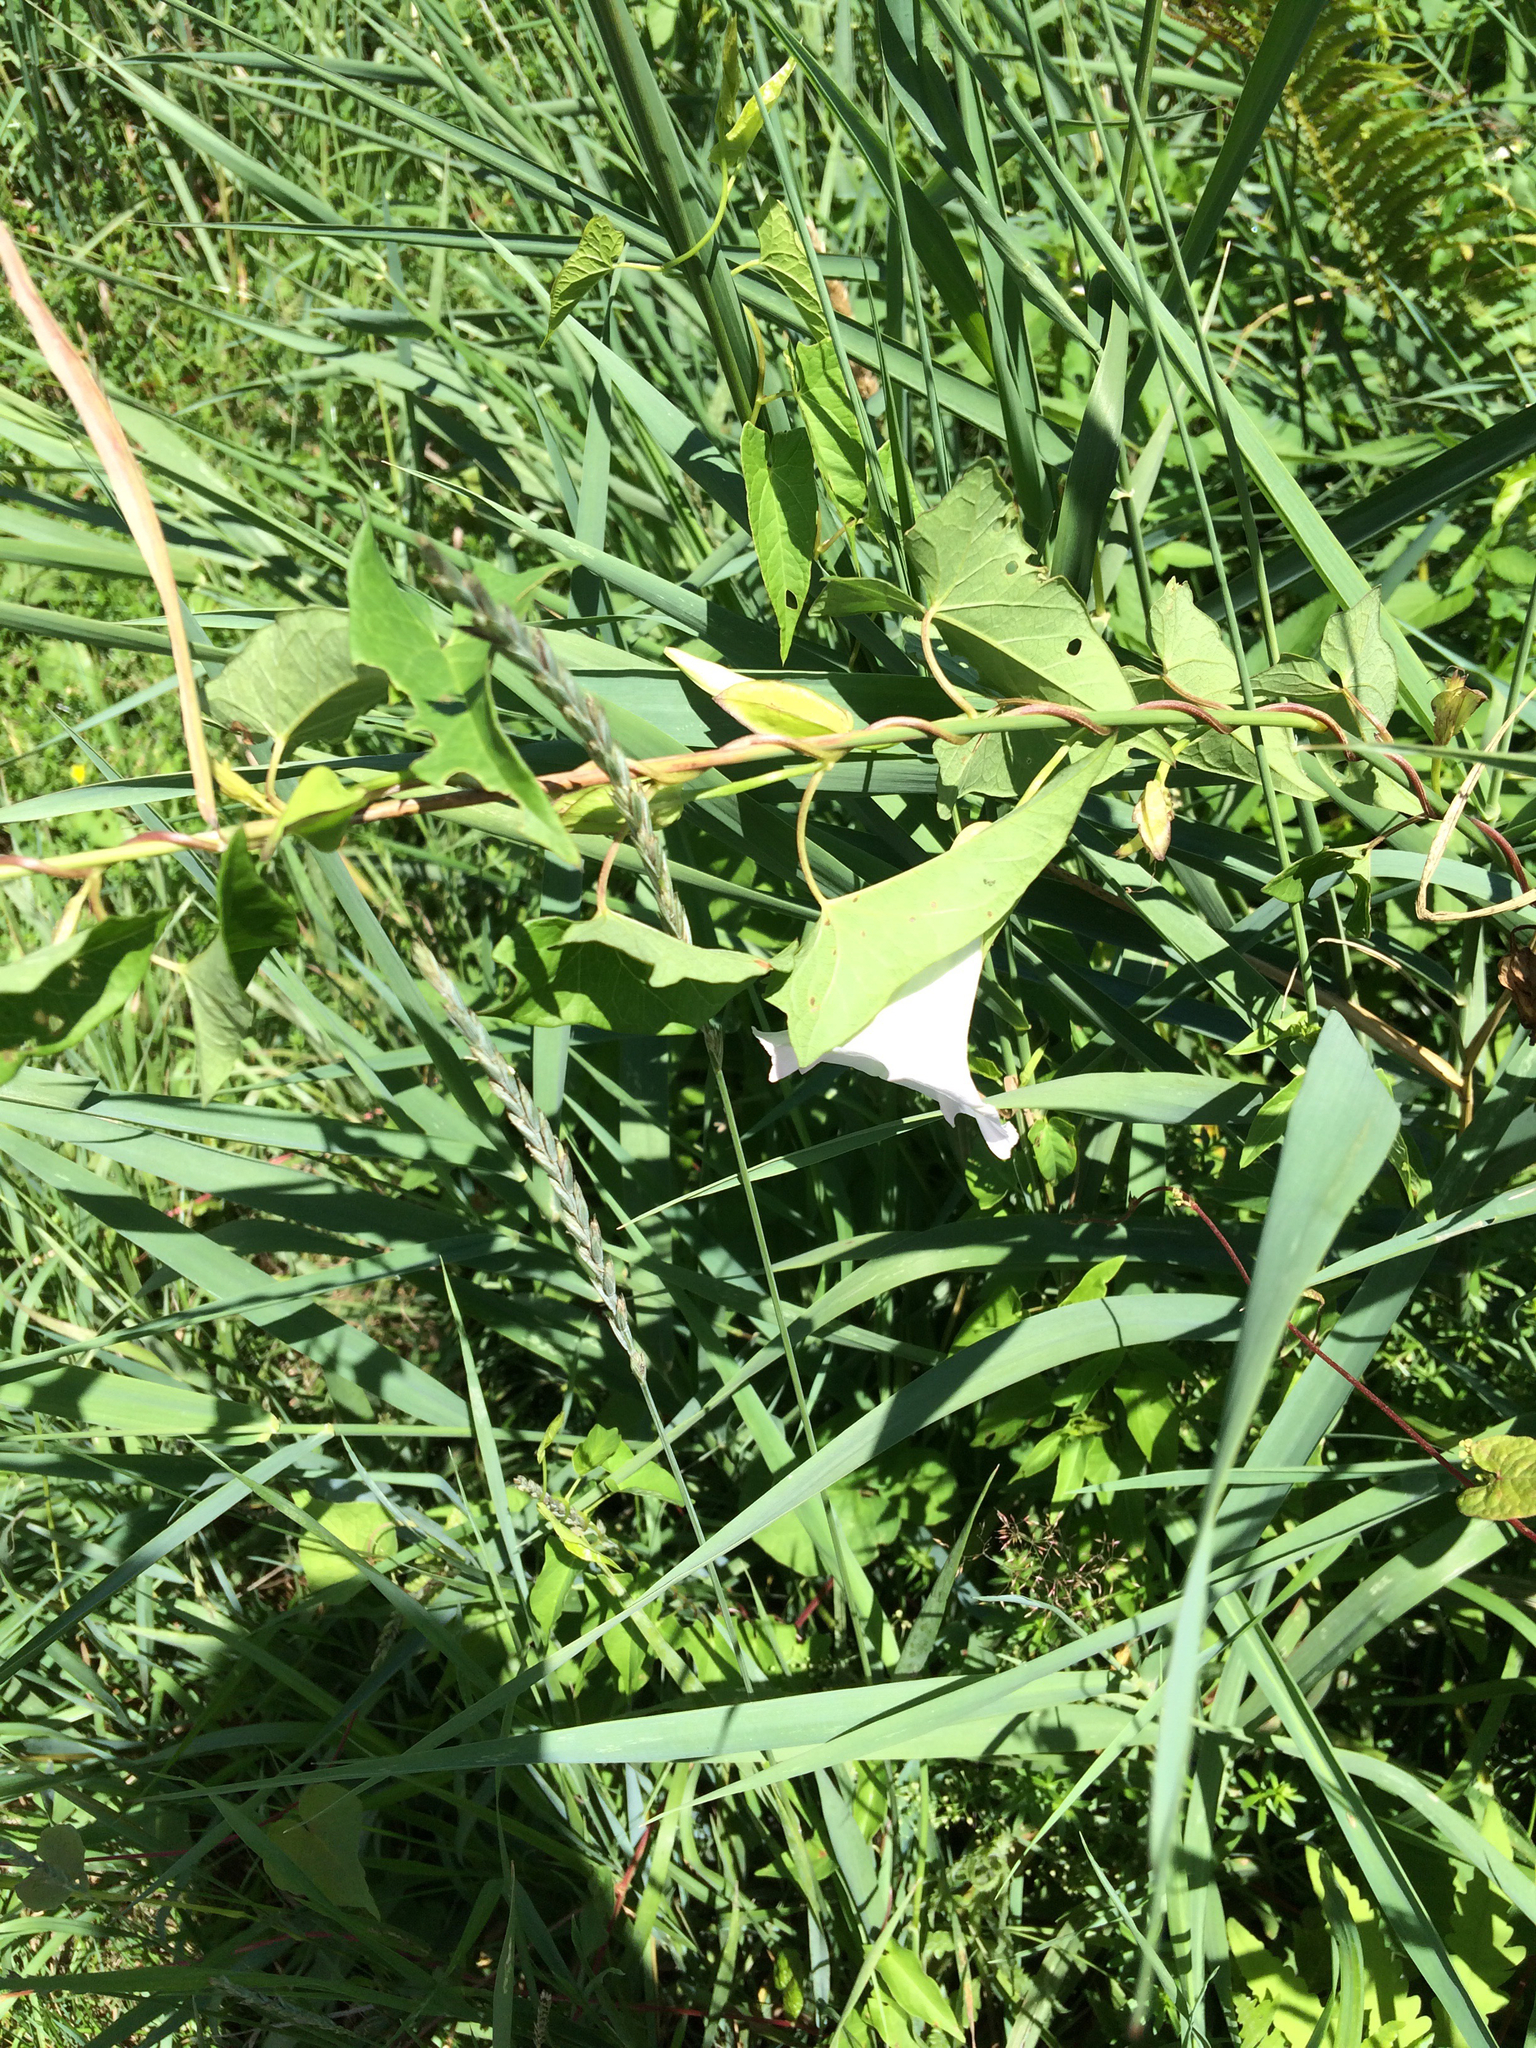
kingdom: Plantae
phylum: Tracheophyta
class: Magnoliopsida
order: Solanales
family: Convolvulaceae
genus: Calystegia
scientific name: Calystegia sepium
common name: Hedge bindweed
